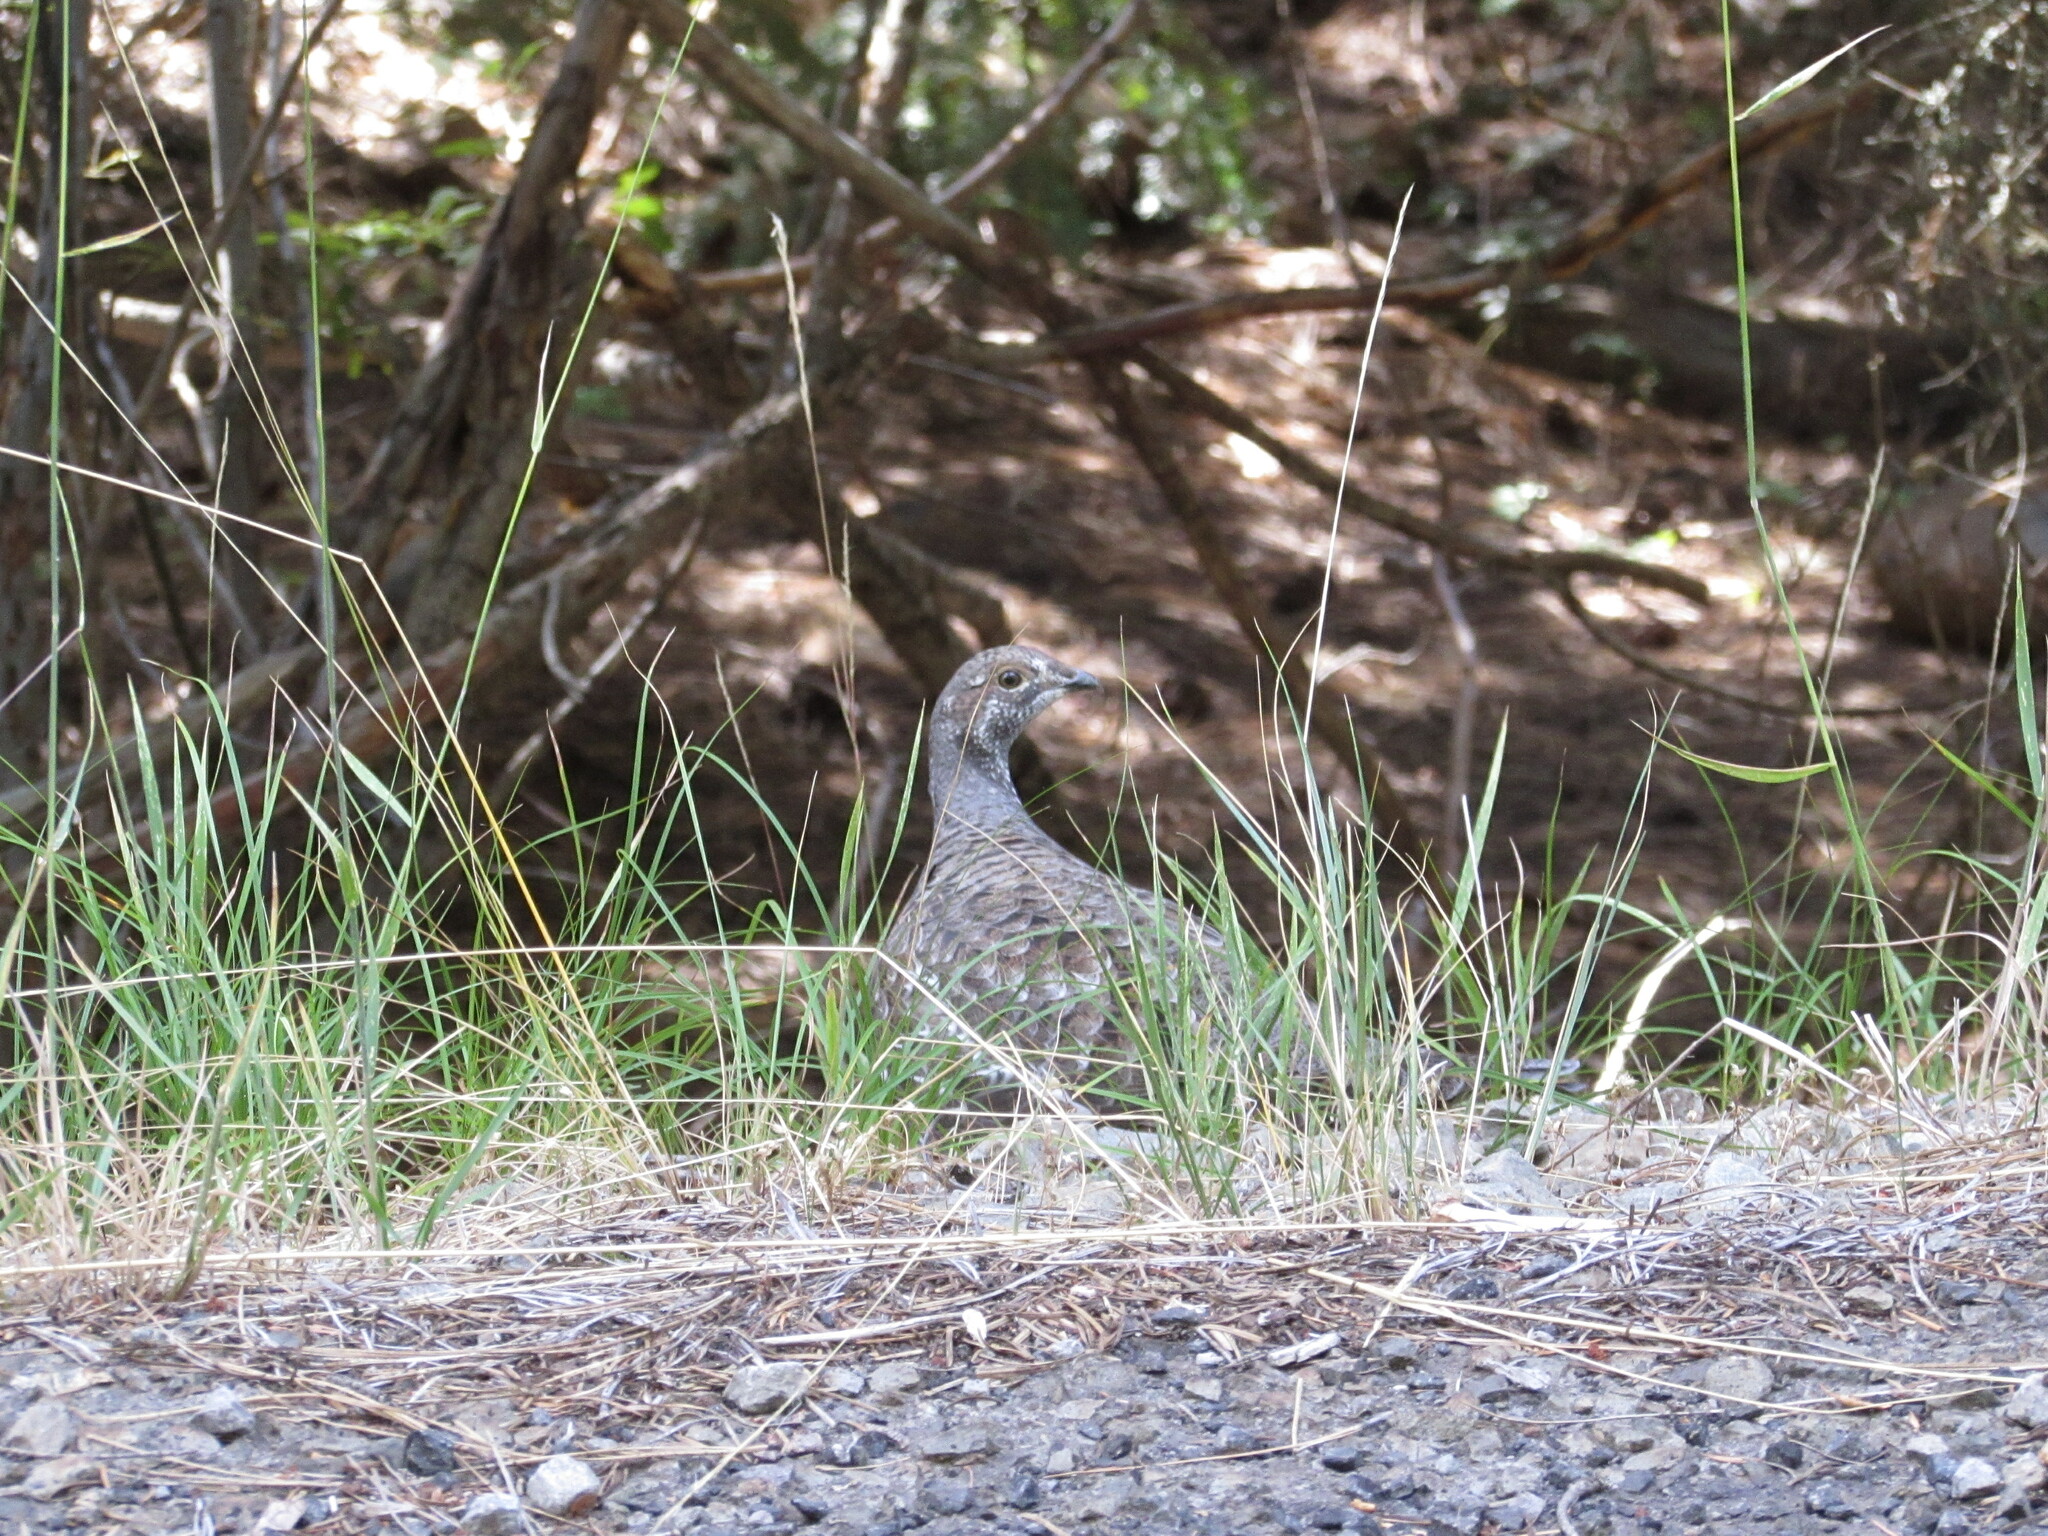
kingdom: Animalia
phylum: Chordata
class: Aves
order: Galliformes
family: Phasianidae
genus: Dendragapus
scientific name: Dendragapus fuliginosus
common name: Sooty grouse
